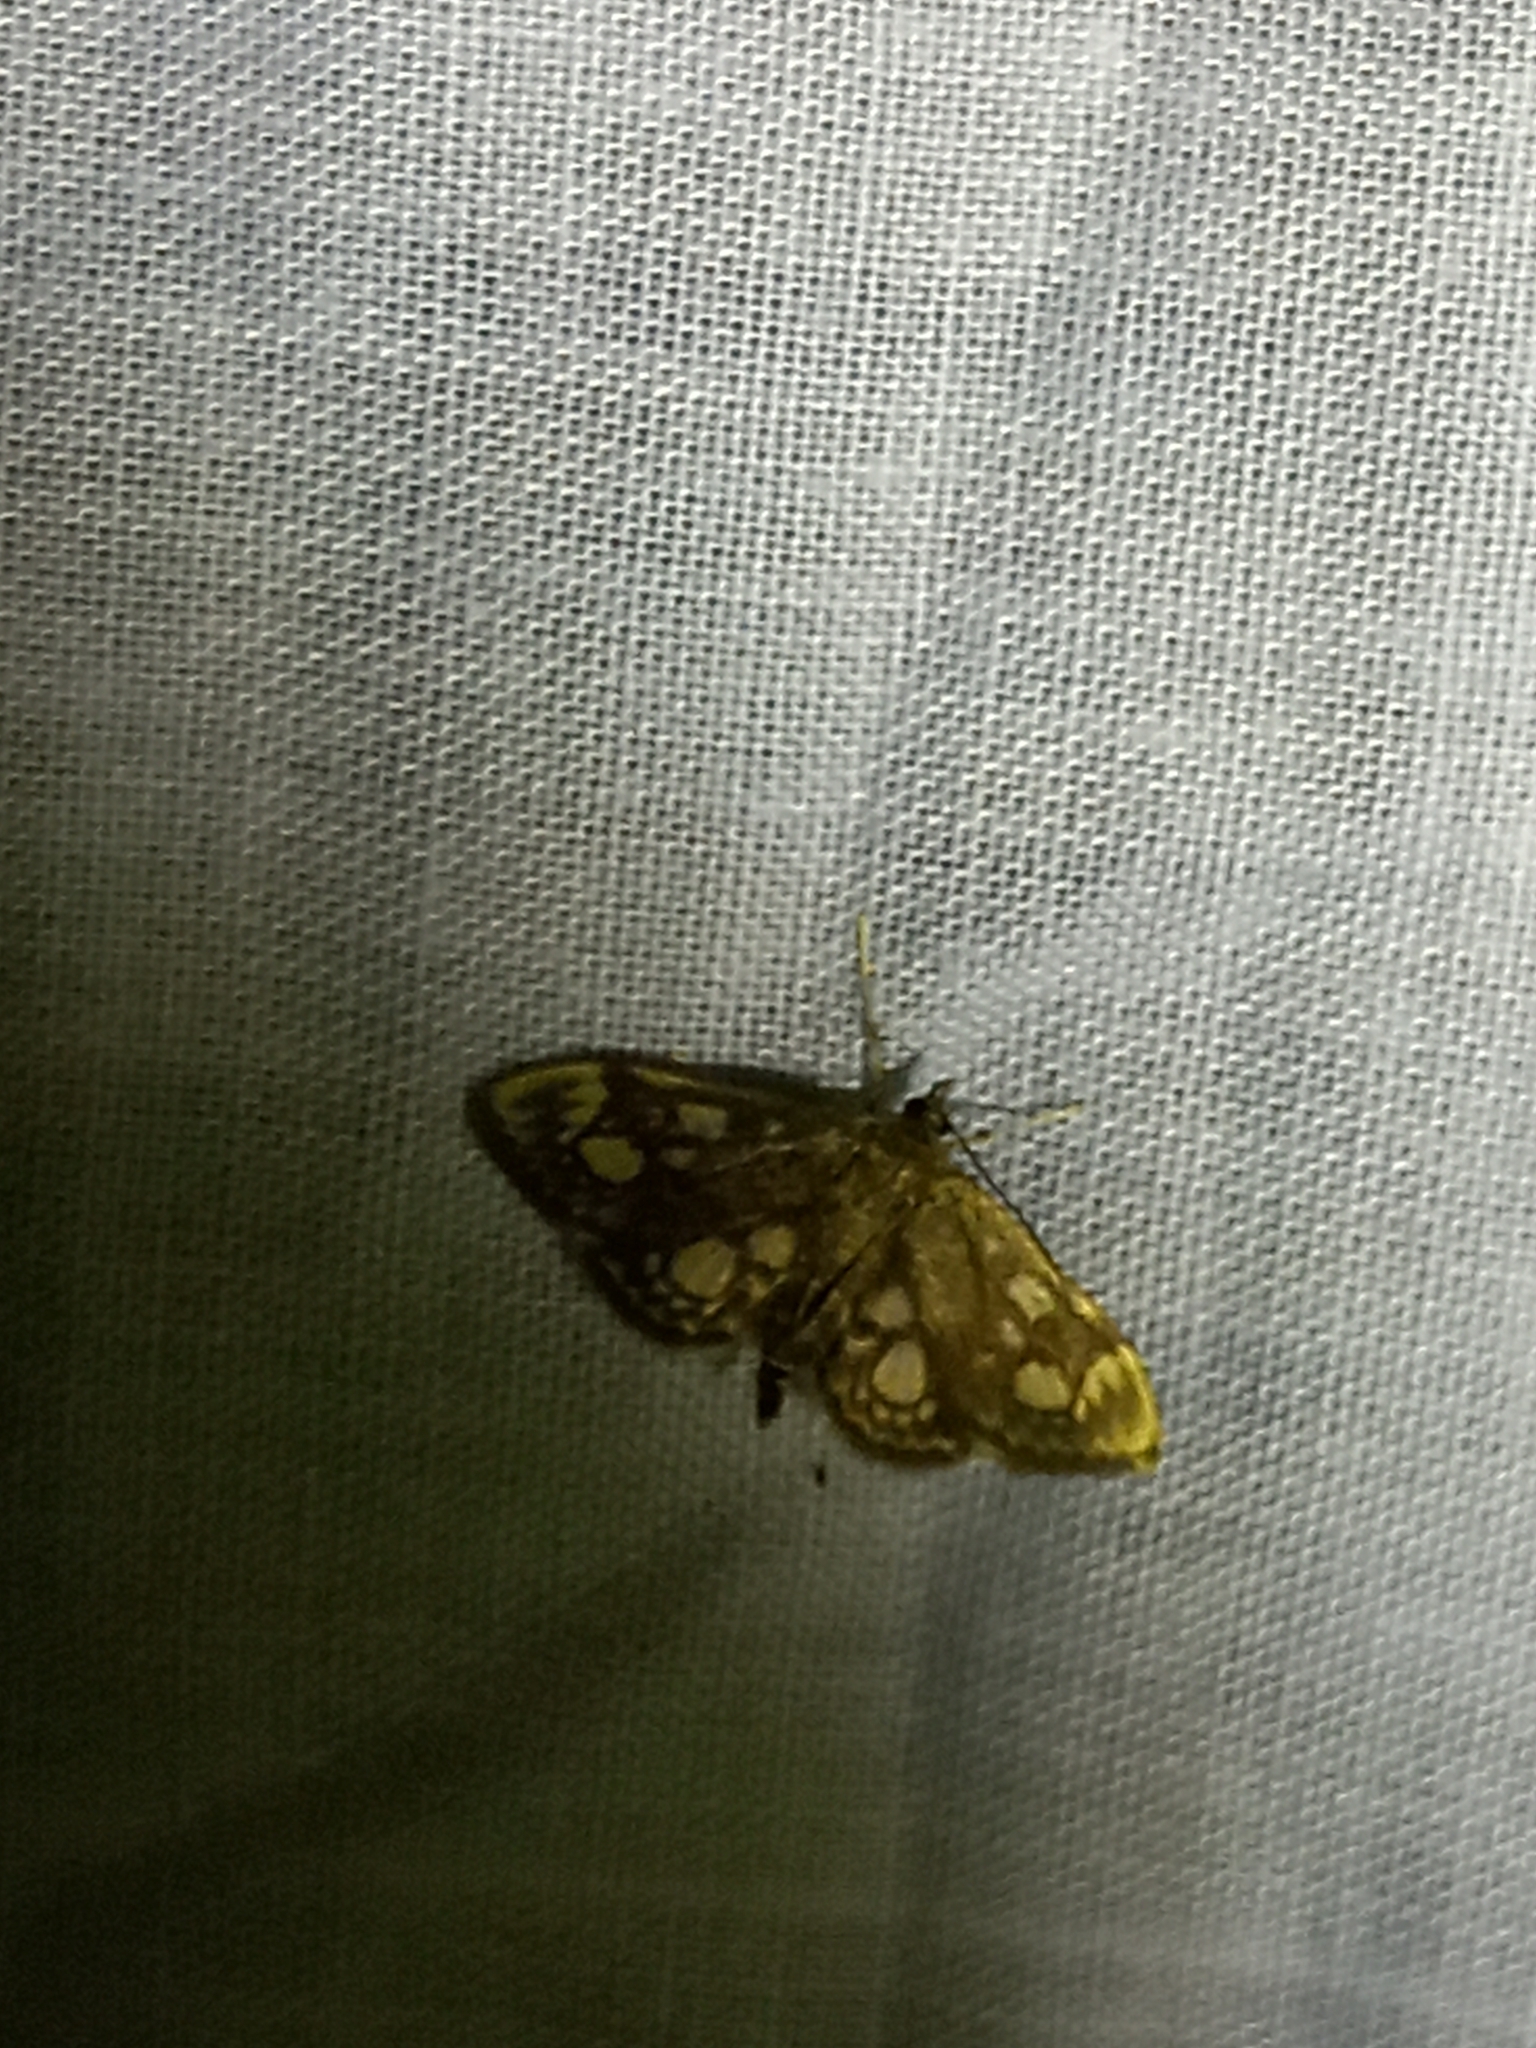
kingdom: Animalia
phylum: Arthropoda
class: Insecta
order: Lepidoptera
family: Crambidae
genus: Anania
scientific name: Anania coronata
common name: Elder pearl
